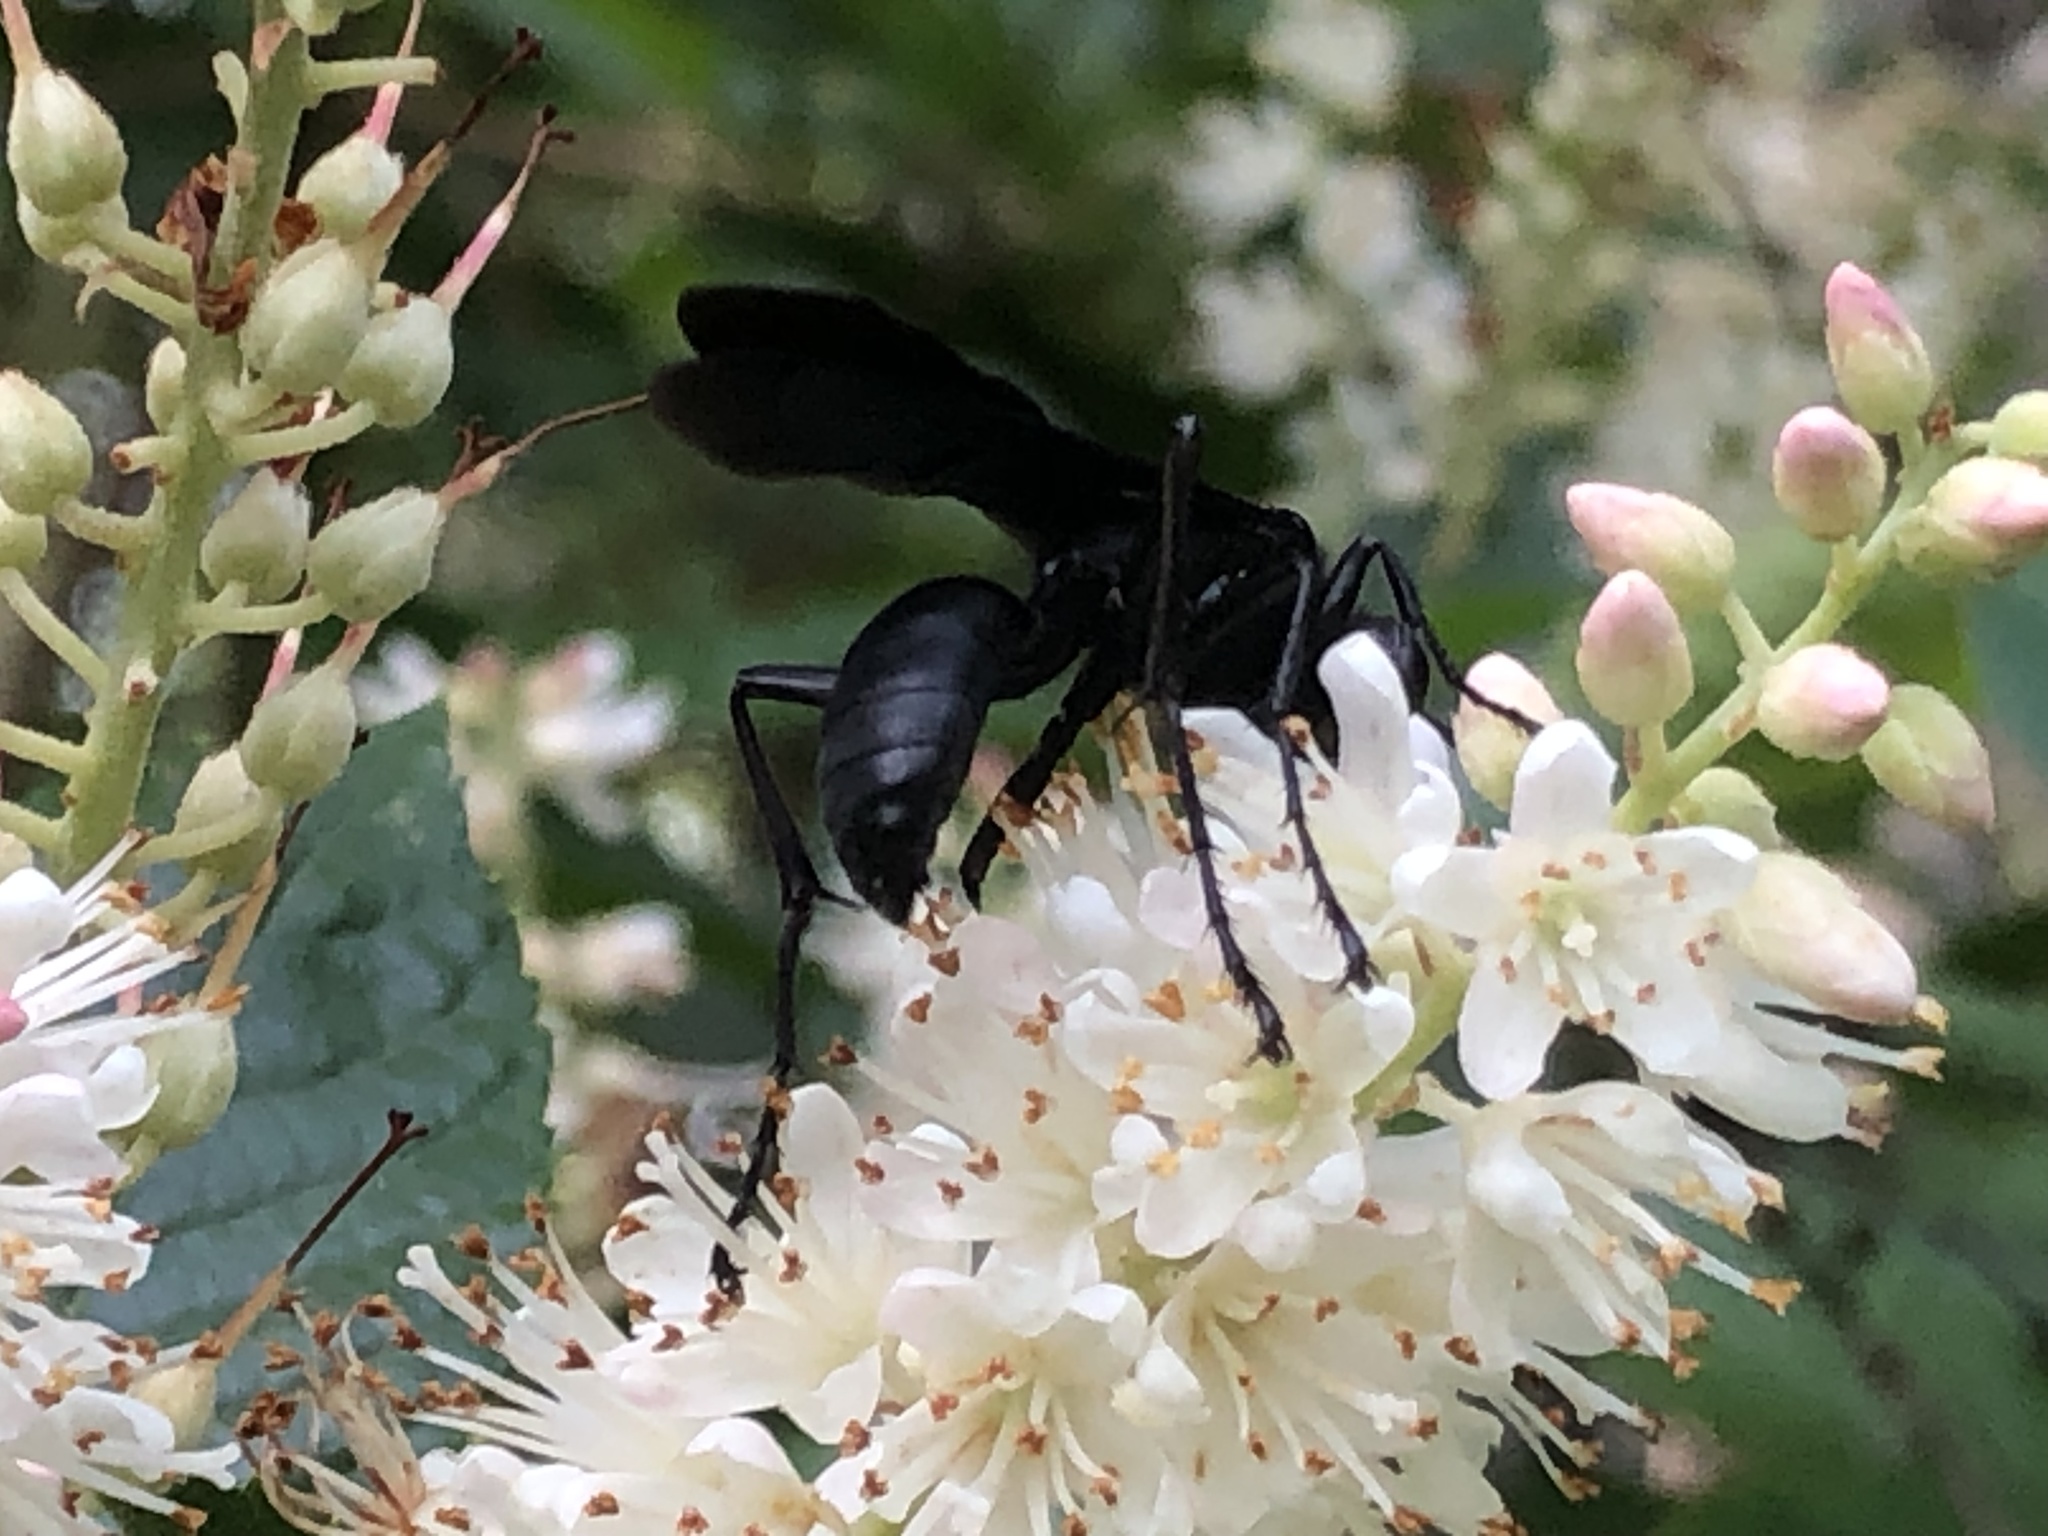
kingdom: Animalia
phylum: Arthropoda
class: Insecta
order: Hymenoptera
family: Sphecidae
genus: Sphex
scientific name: Sphex pensylvanicus
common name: Great black digger wasp
